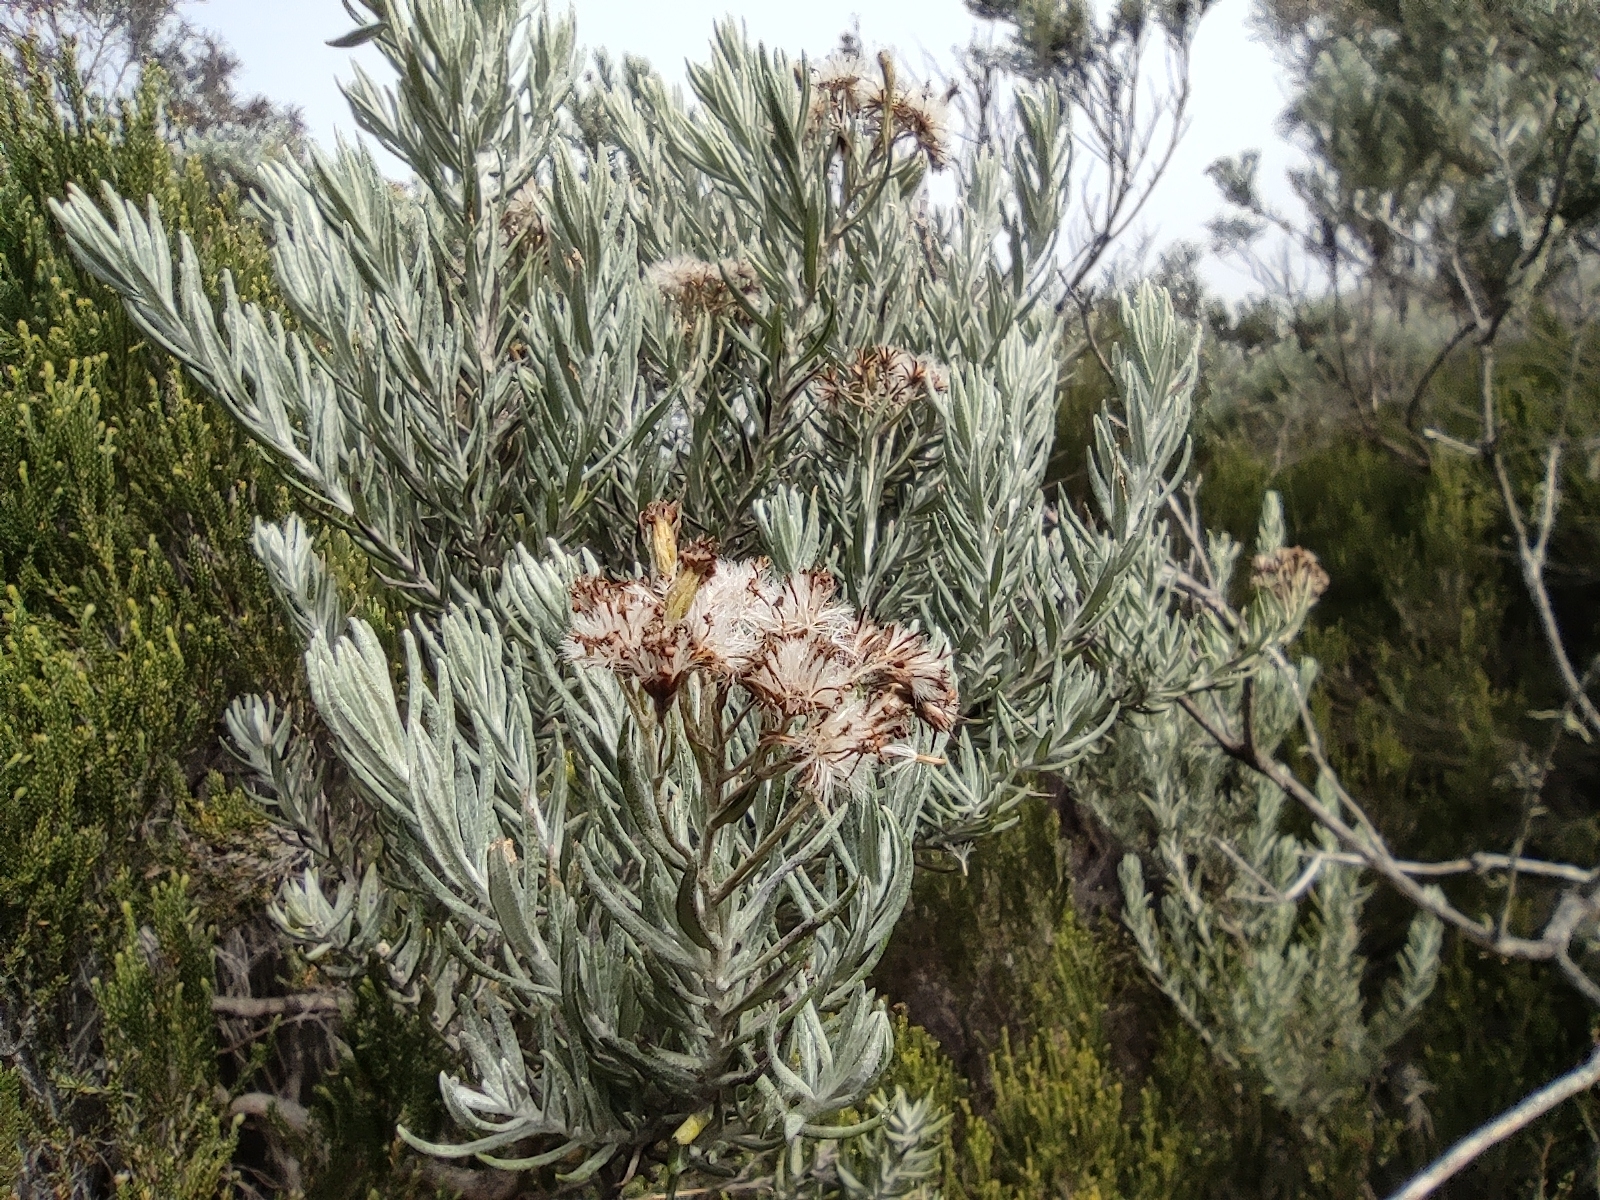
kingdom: Plantae
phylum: Tracheophyta
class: Magnoliopsida
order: Asterales
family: Asteraceae
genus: Hubertia
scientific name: Hubertia tomentosa
